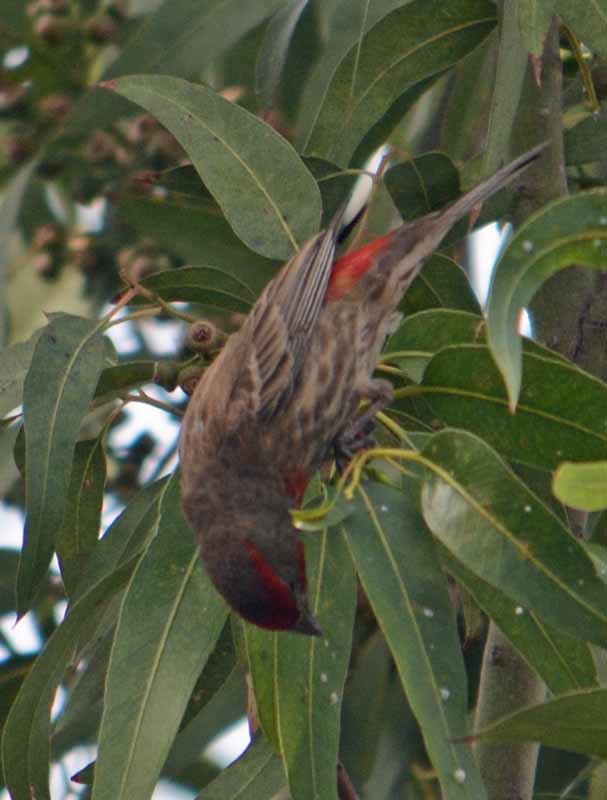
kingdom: Animalia
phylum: Chordata
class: Aves
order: Passeriformes
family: Fringillidae
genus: Haemorhous
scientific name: Haemorhous mexicanus
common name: House finch
